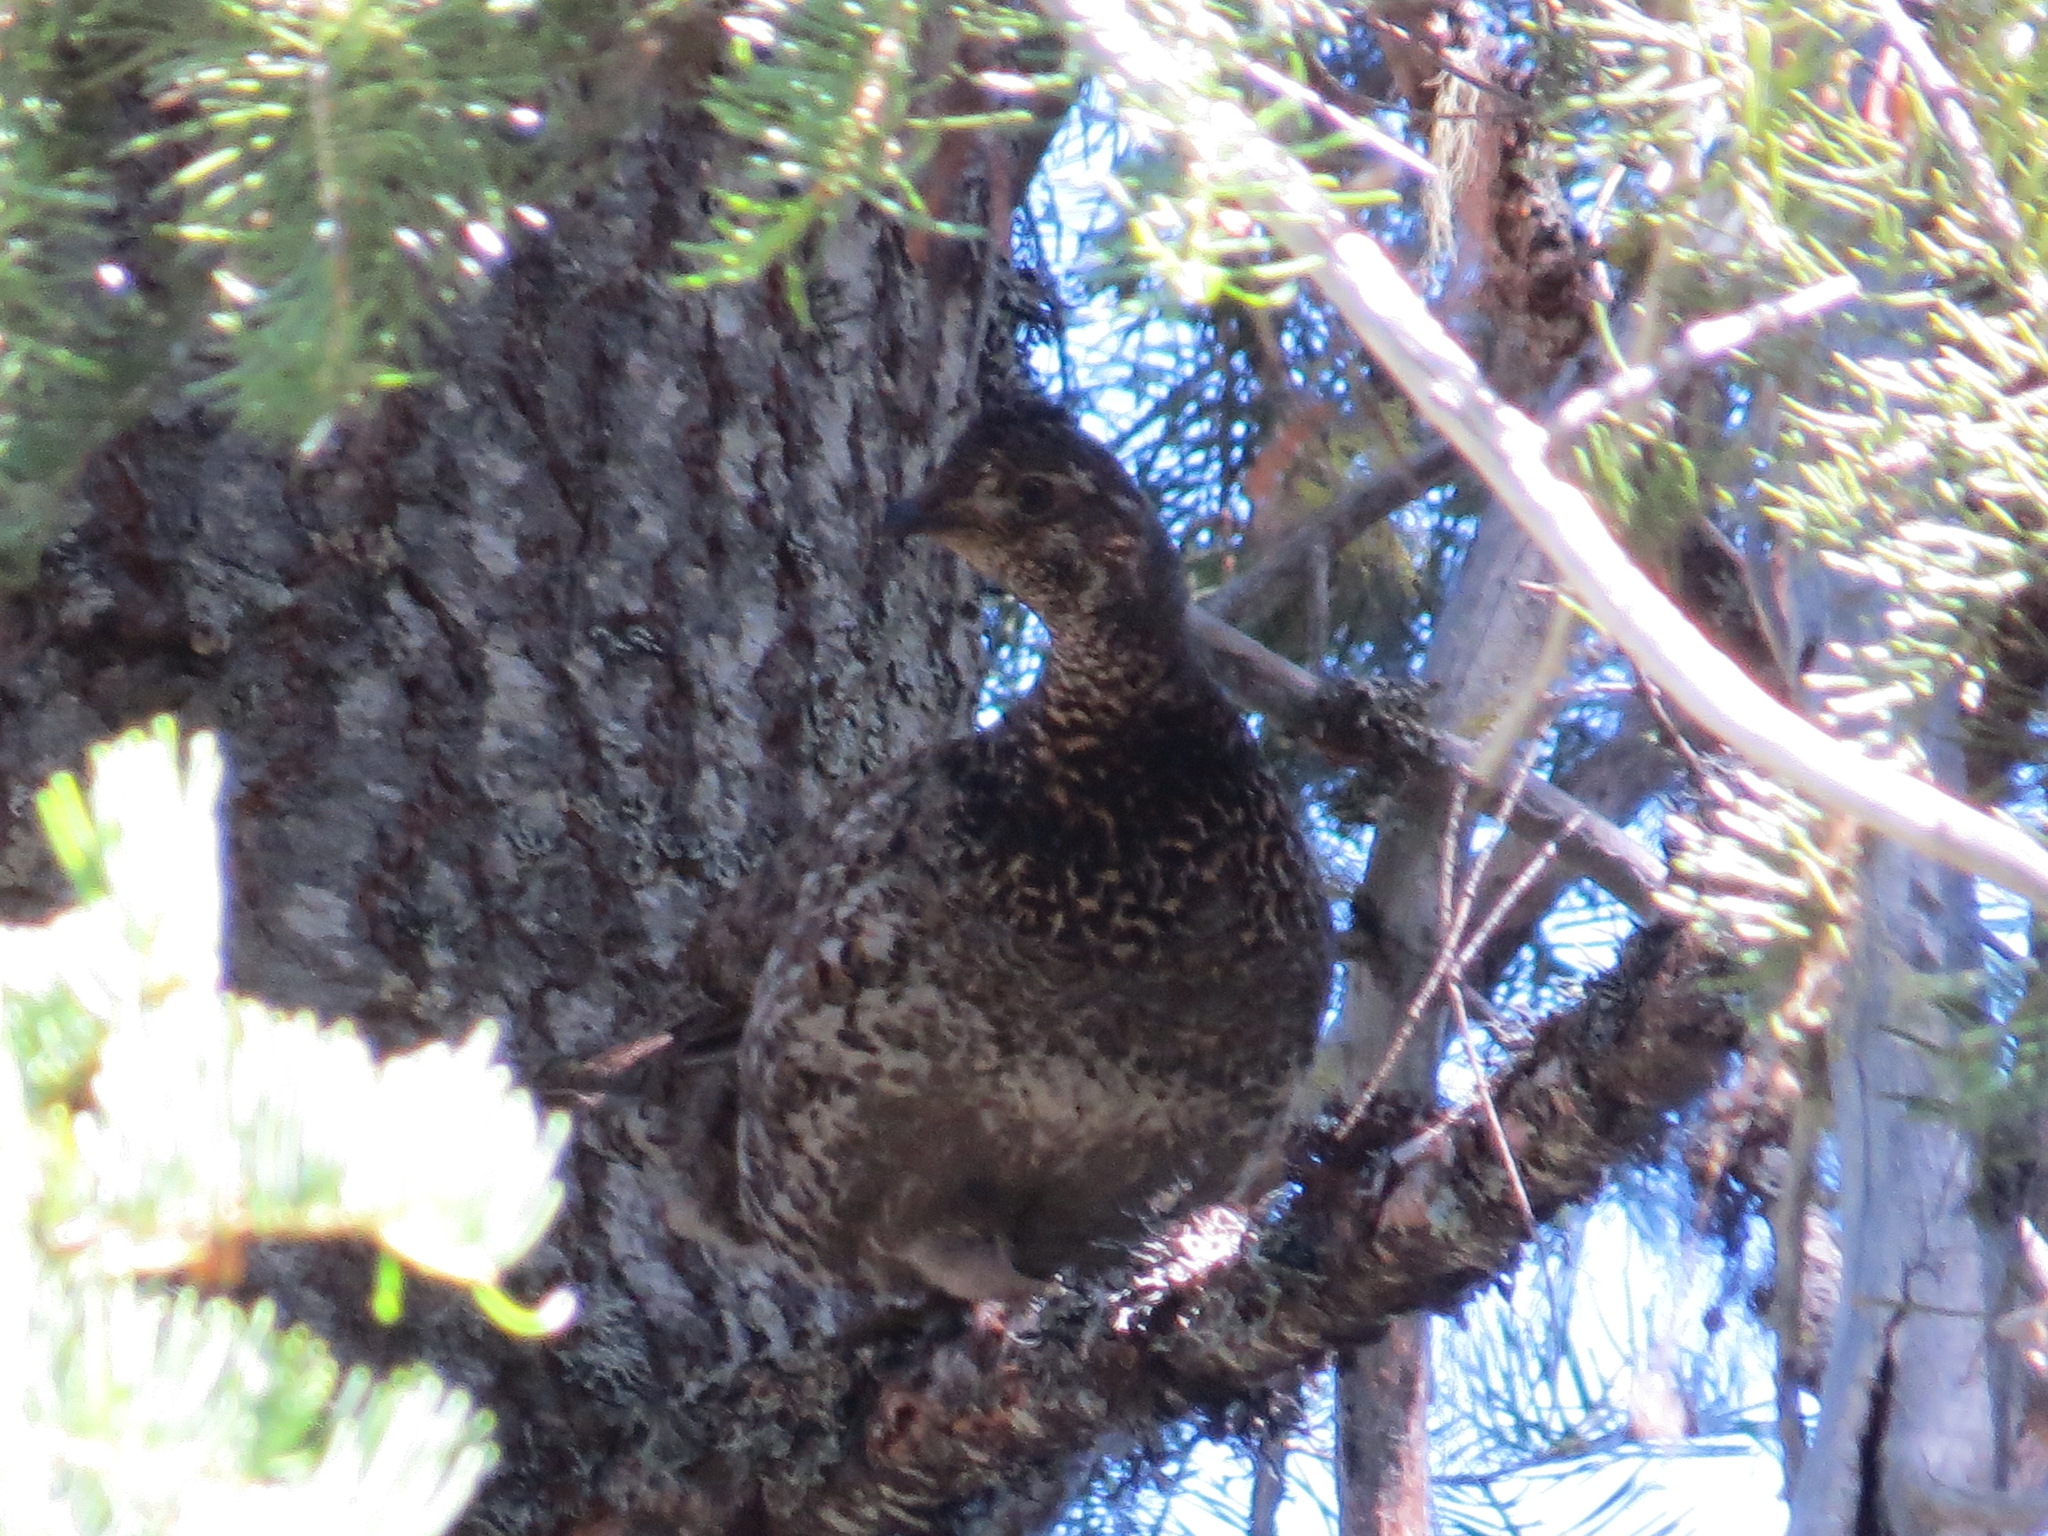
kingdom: Animalia
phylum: Chordata
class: Aves
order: Galliformes
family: Phasianidae
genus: Dendragapus
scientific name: Dendragapus fuliginosus
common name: Sooty grouse
